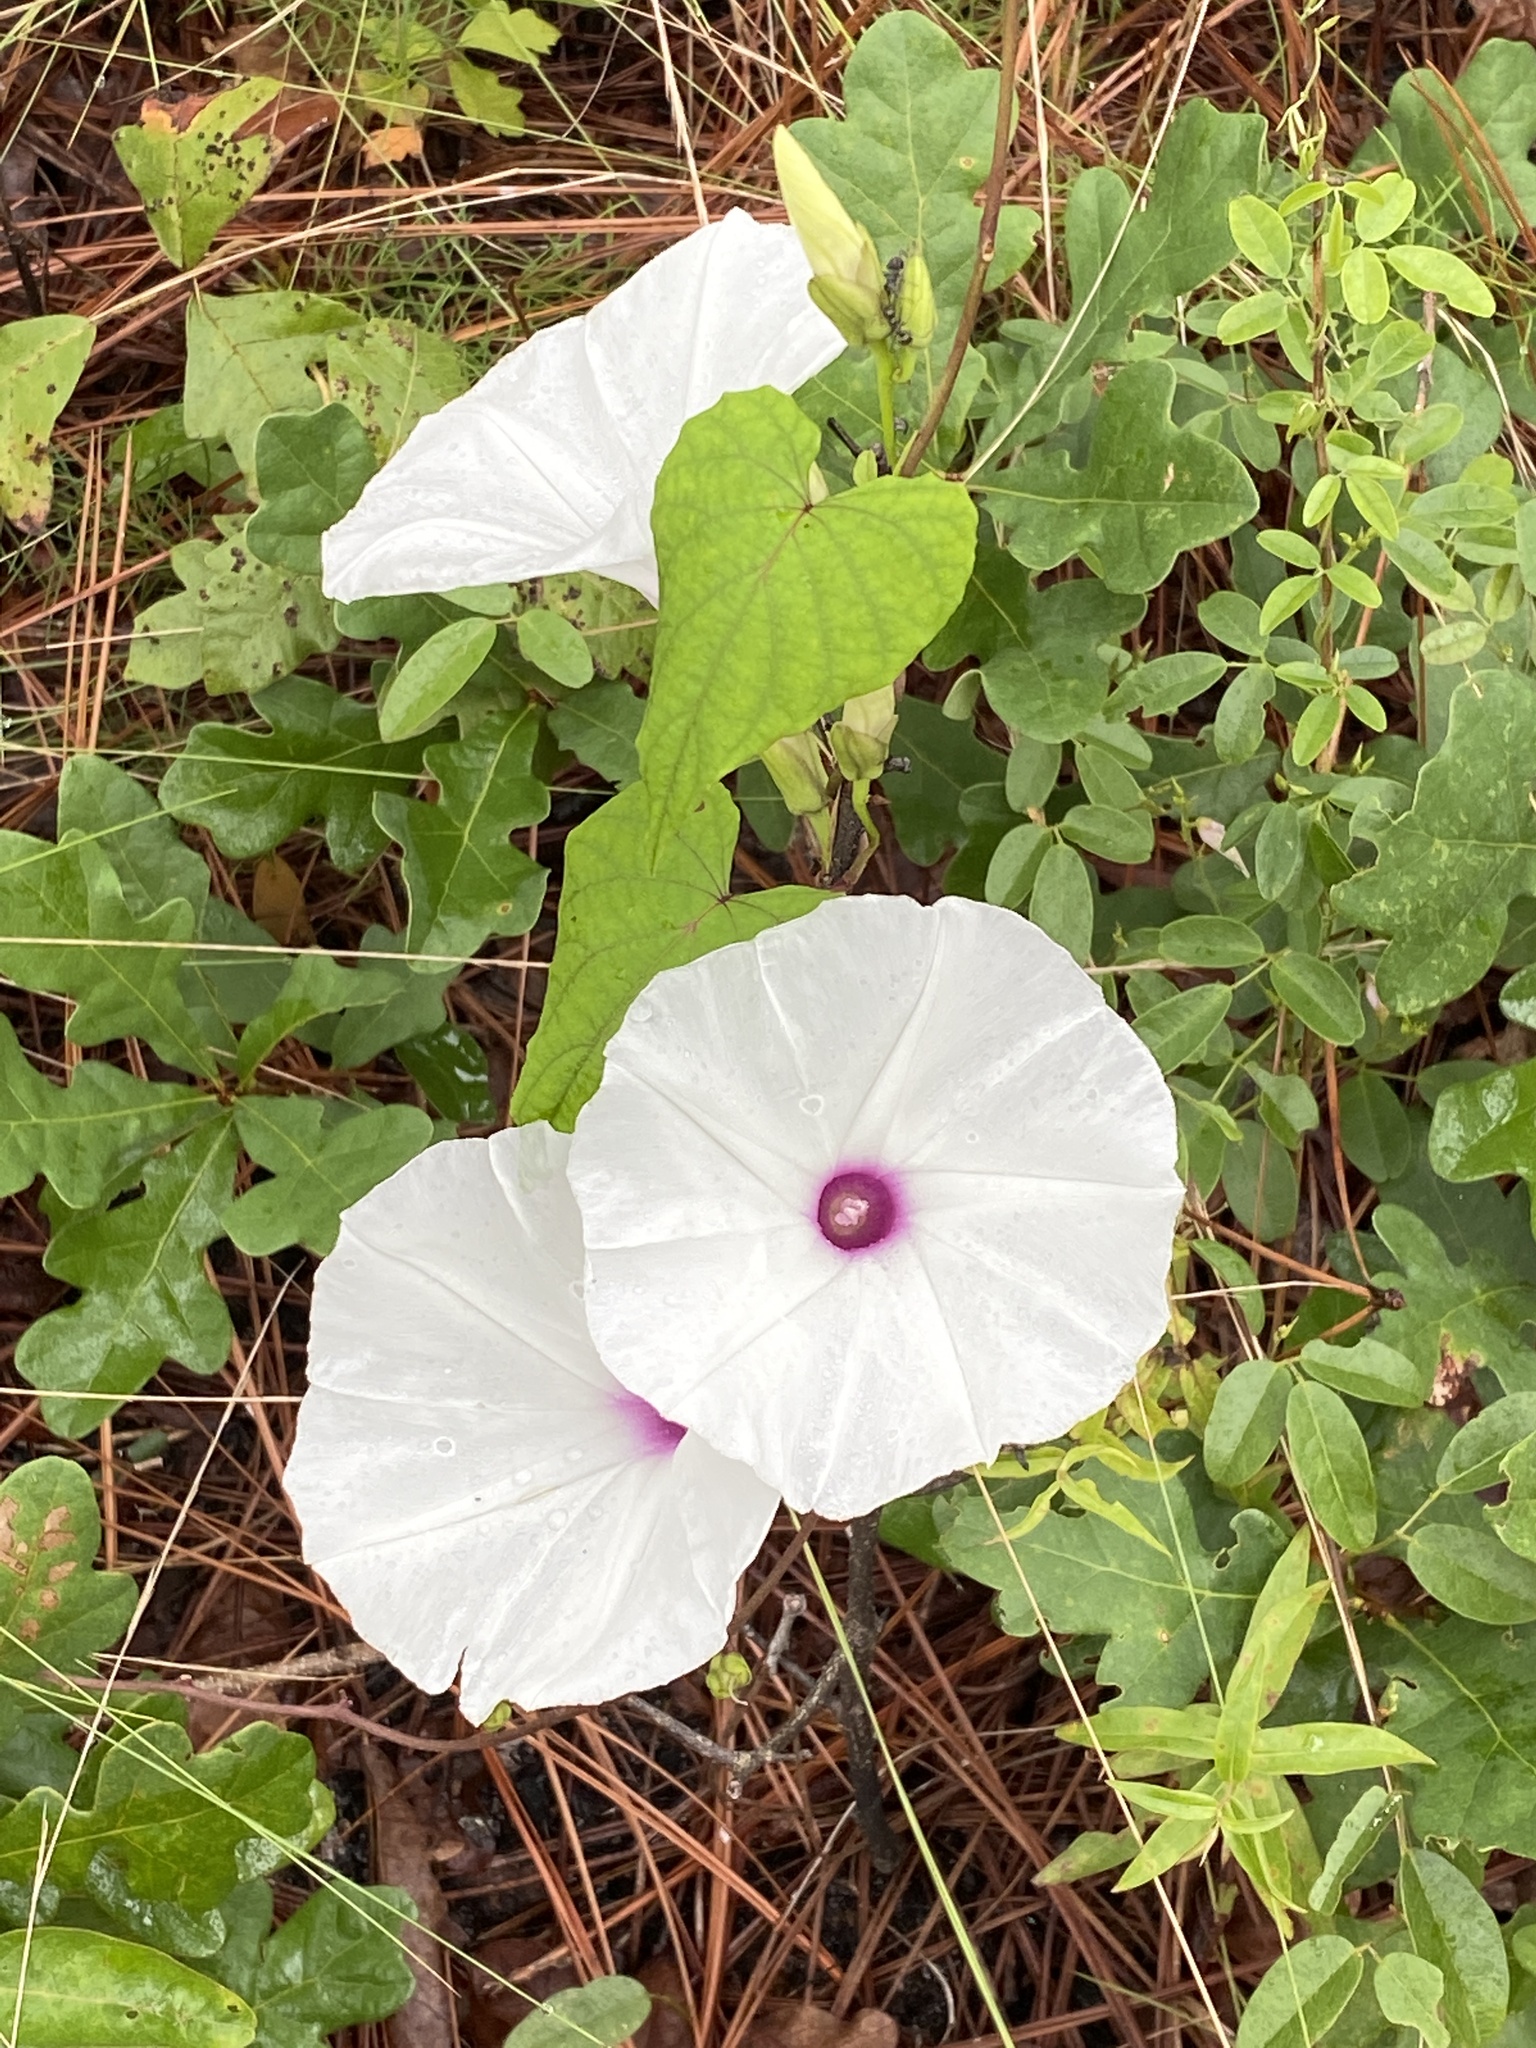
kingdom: Plantae
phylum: Tracheophyta
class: Magnoliopsida
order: Solanales
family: Convolvulaceae
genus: Ipomoea
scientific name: Ipomoea pandurata
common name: Man-of-the-earth
